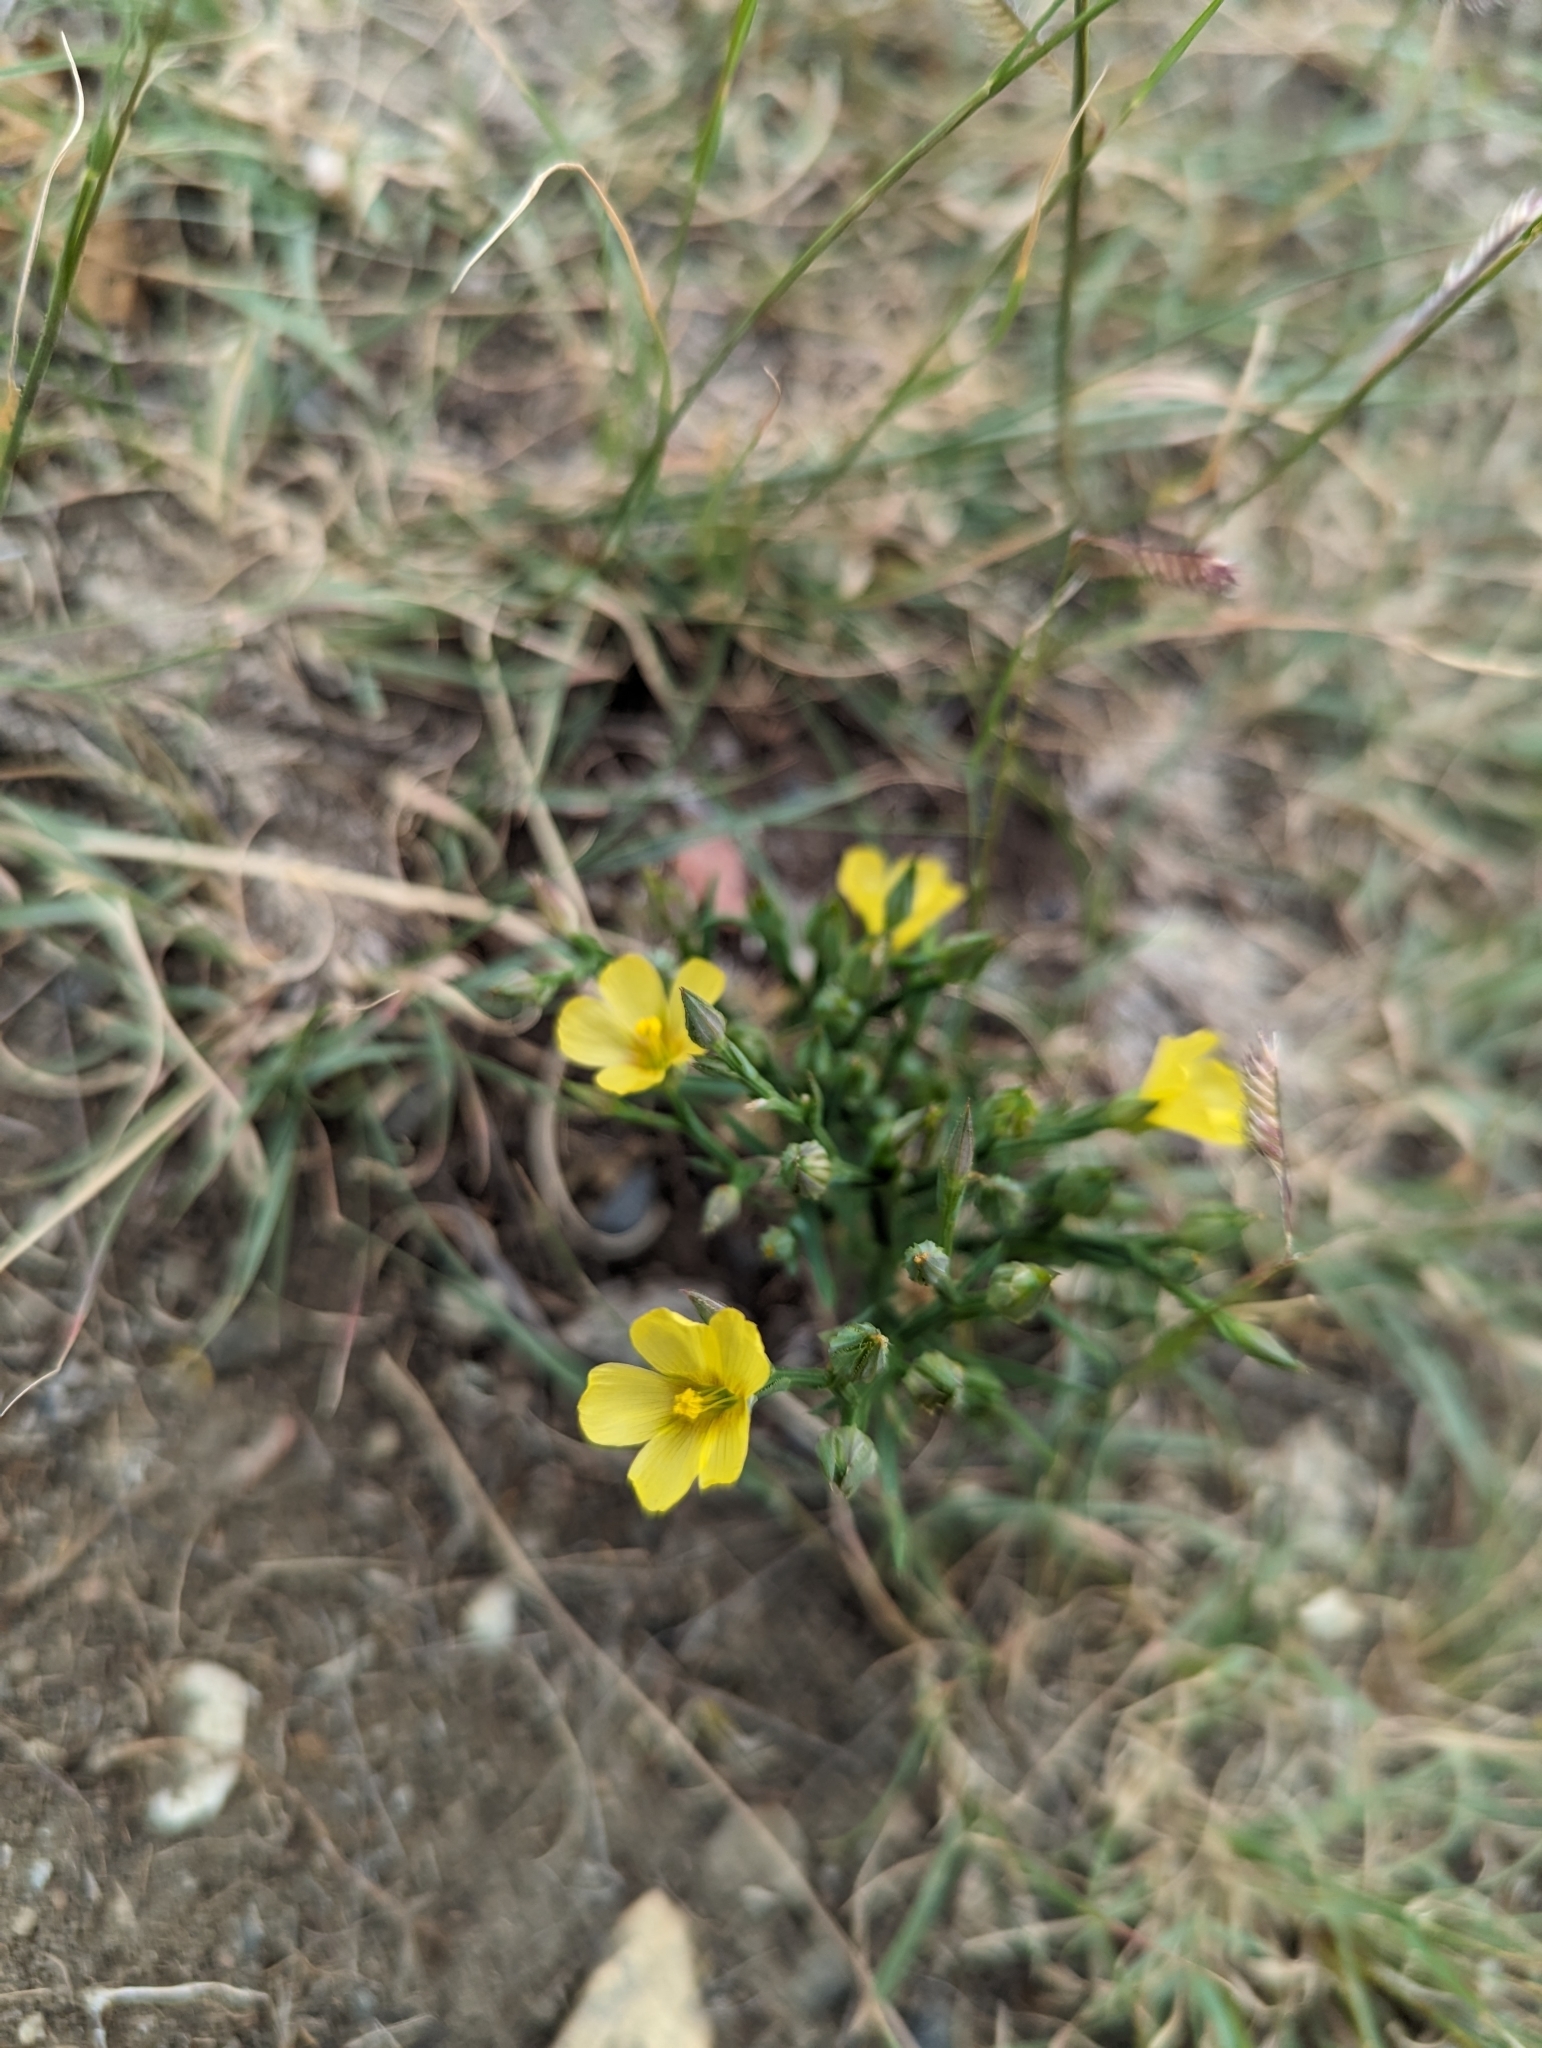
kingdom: Plantae
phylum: Tracheophyta
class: Magnoliopsida
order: Cornales
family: Loasaceae
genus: Mentzelia
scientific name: Mentzelia albicaulis
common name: White-stem blazingstar
